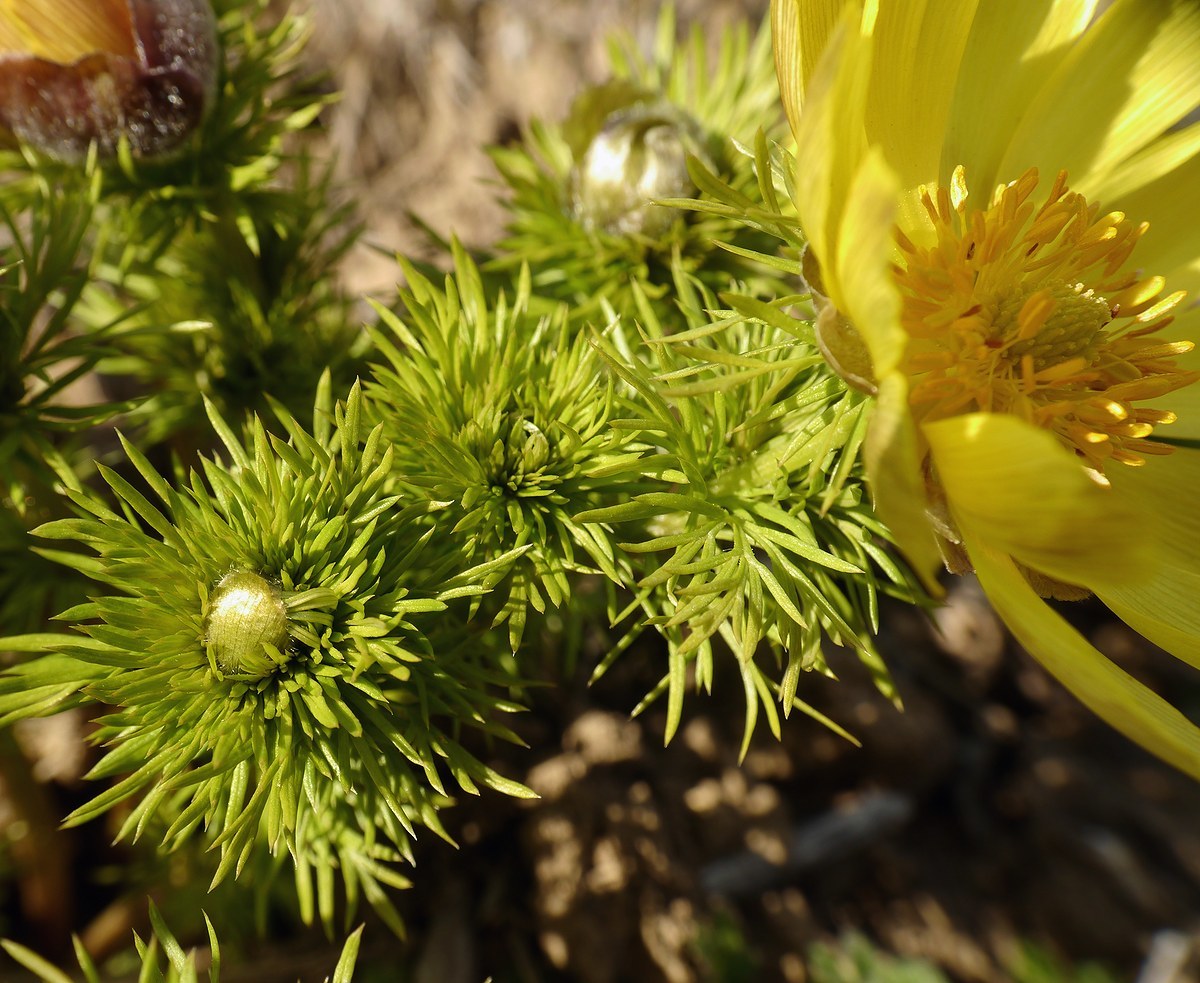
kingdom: Plantae
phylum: Tracheophyta
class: Magnoliopsida
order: Ranunculales
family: Ranunculaceae
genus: Adonis
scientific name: Adonis vernalis
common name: Yellow pheasants-eye
